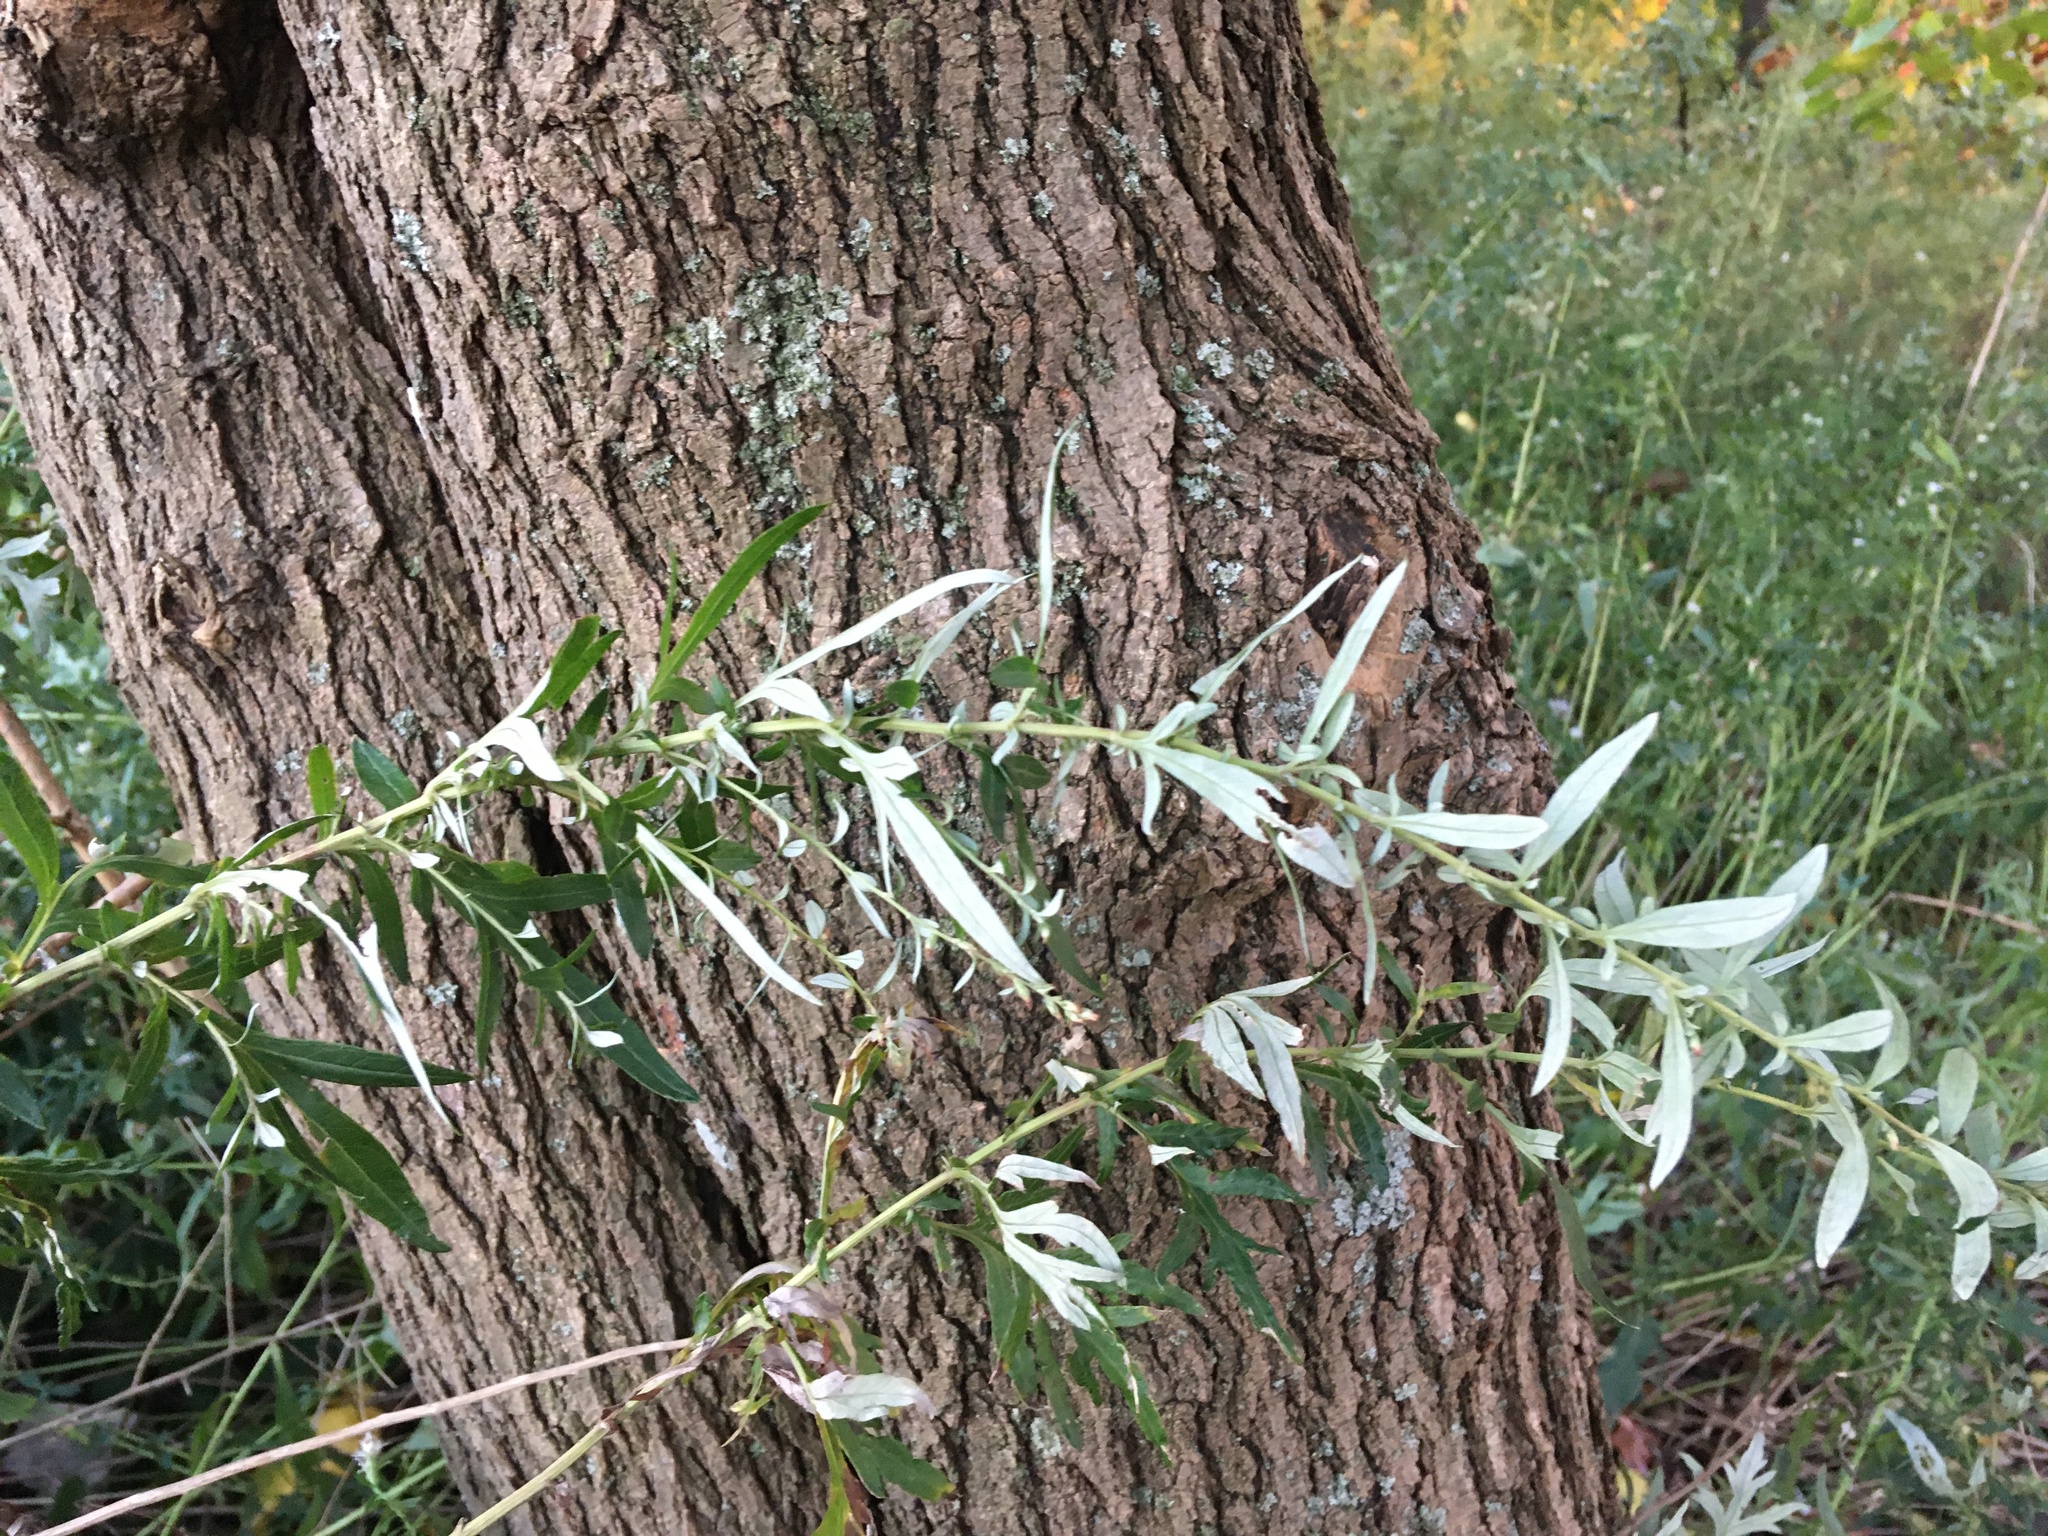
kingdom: Plantae
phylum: Tracheophyta
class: Magnoliopsida
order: Asterales
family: Asteraceae
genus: Artemisia
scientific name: Artemisia vulgaris
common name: Mugwort
